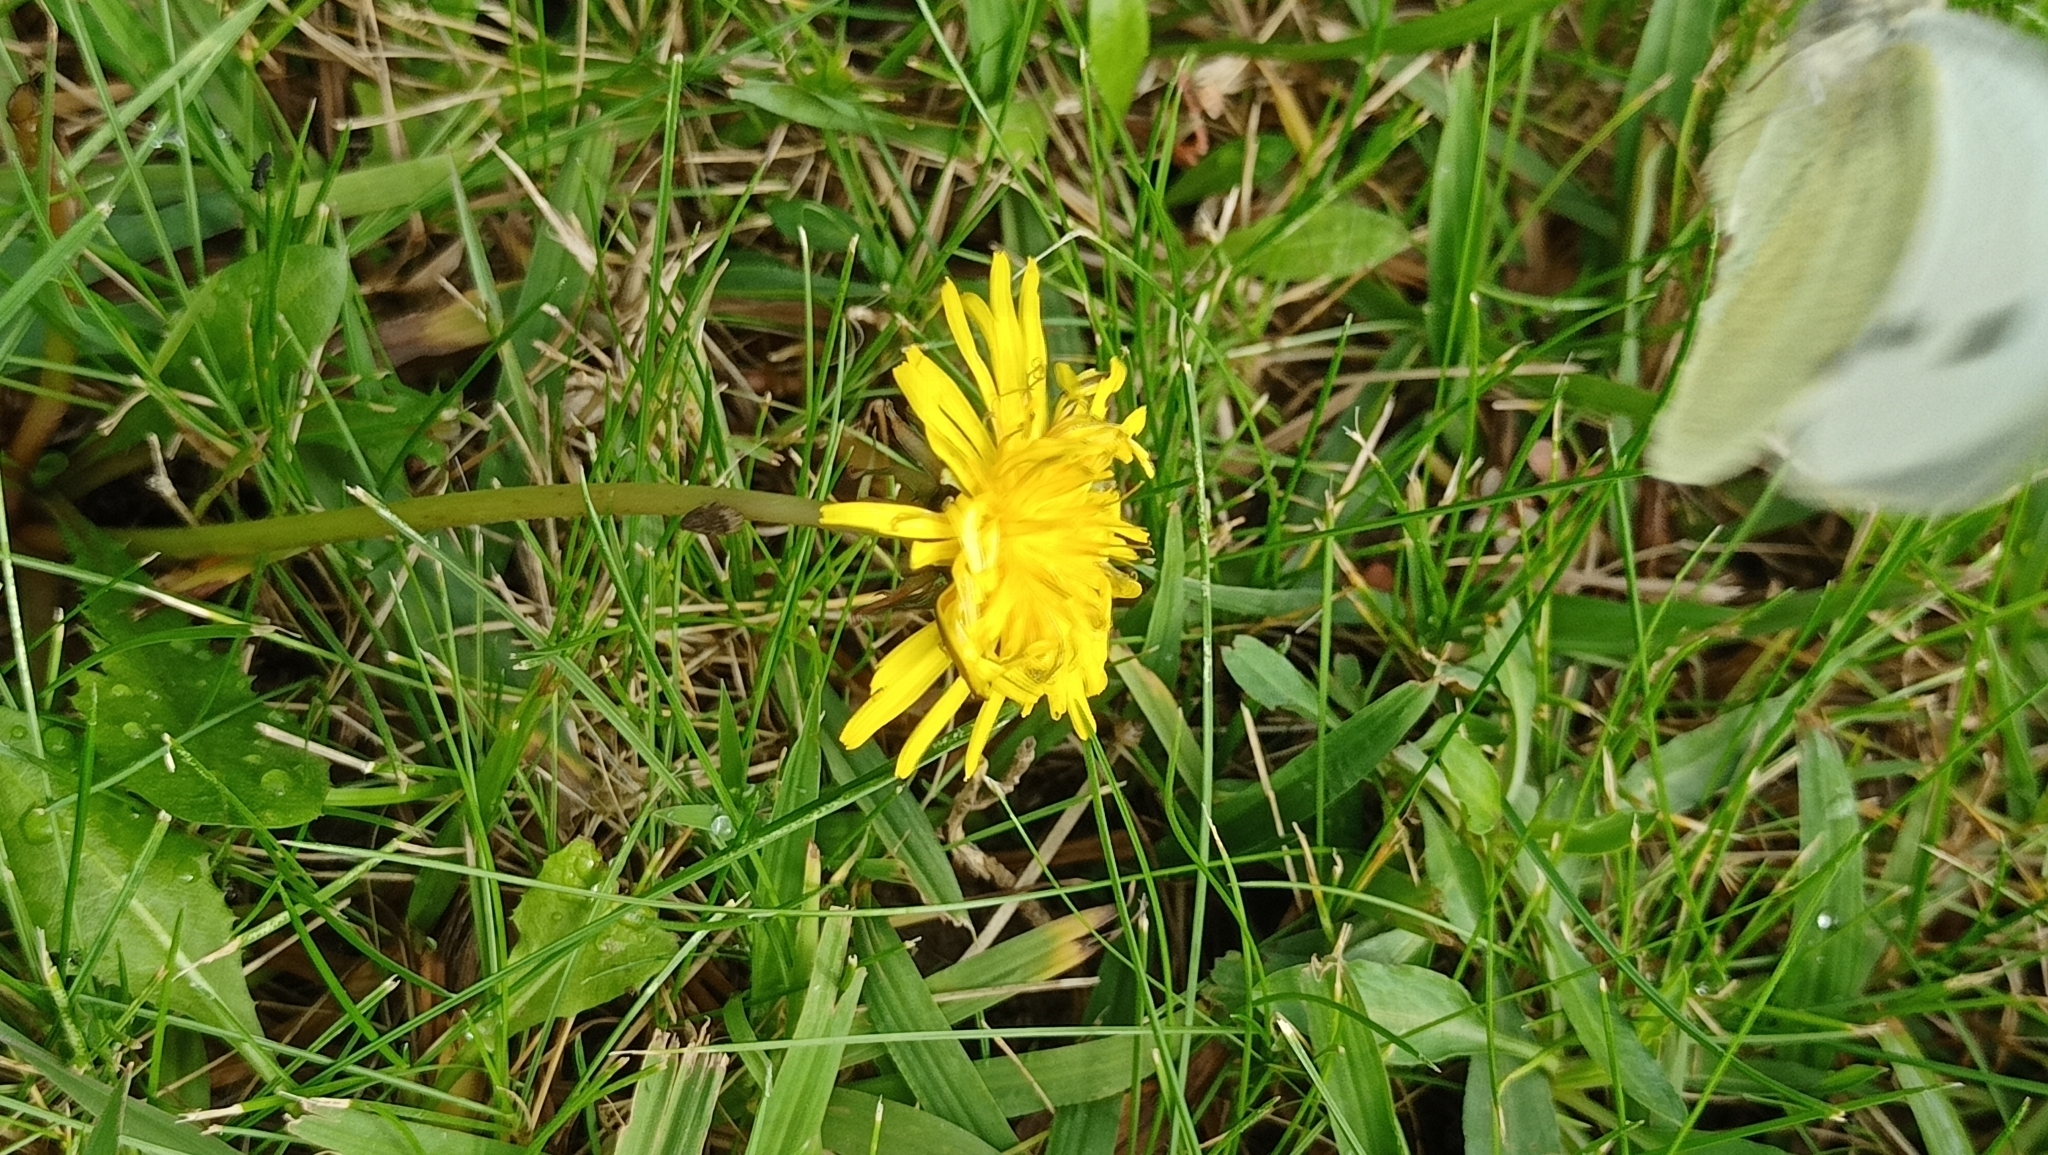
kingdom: Animalia
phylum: Arthropoda
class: Insecta
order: Lepidoptera
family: Pieridae
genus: Pieris
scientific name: Pieris brassicae
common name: Large white
